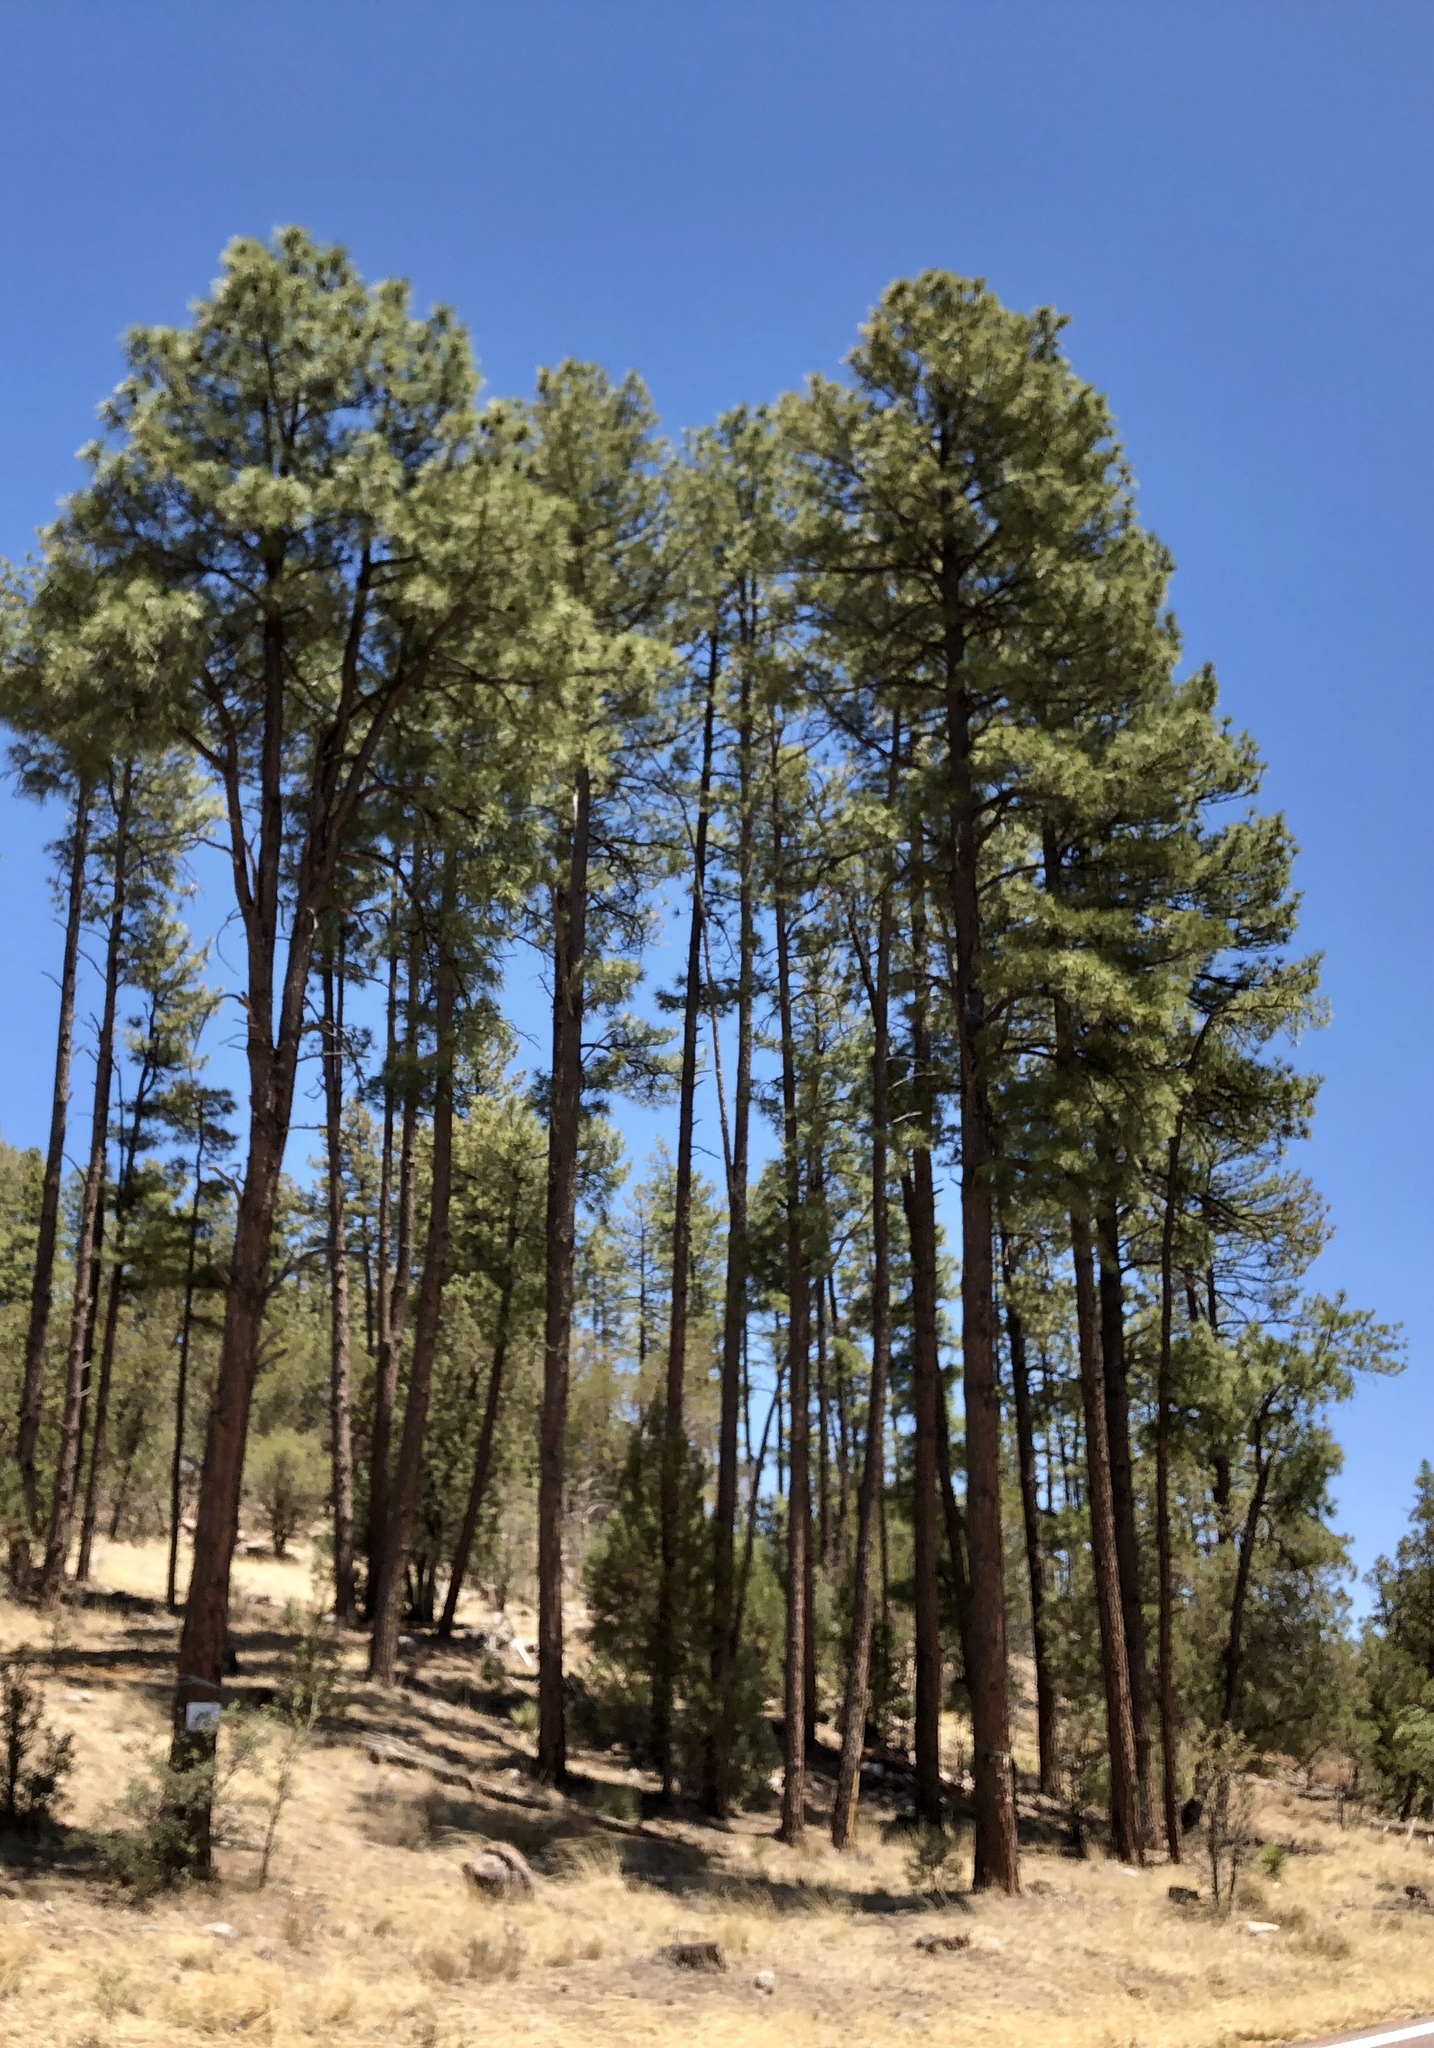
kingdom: Plantae
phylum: Tracheophyta
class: Pinopsida
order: Pinales
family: Pinaceae
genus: Pinus
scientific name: Pinus ponderosa
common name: Western yellow-pine
